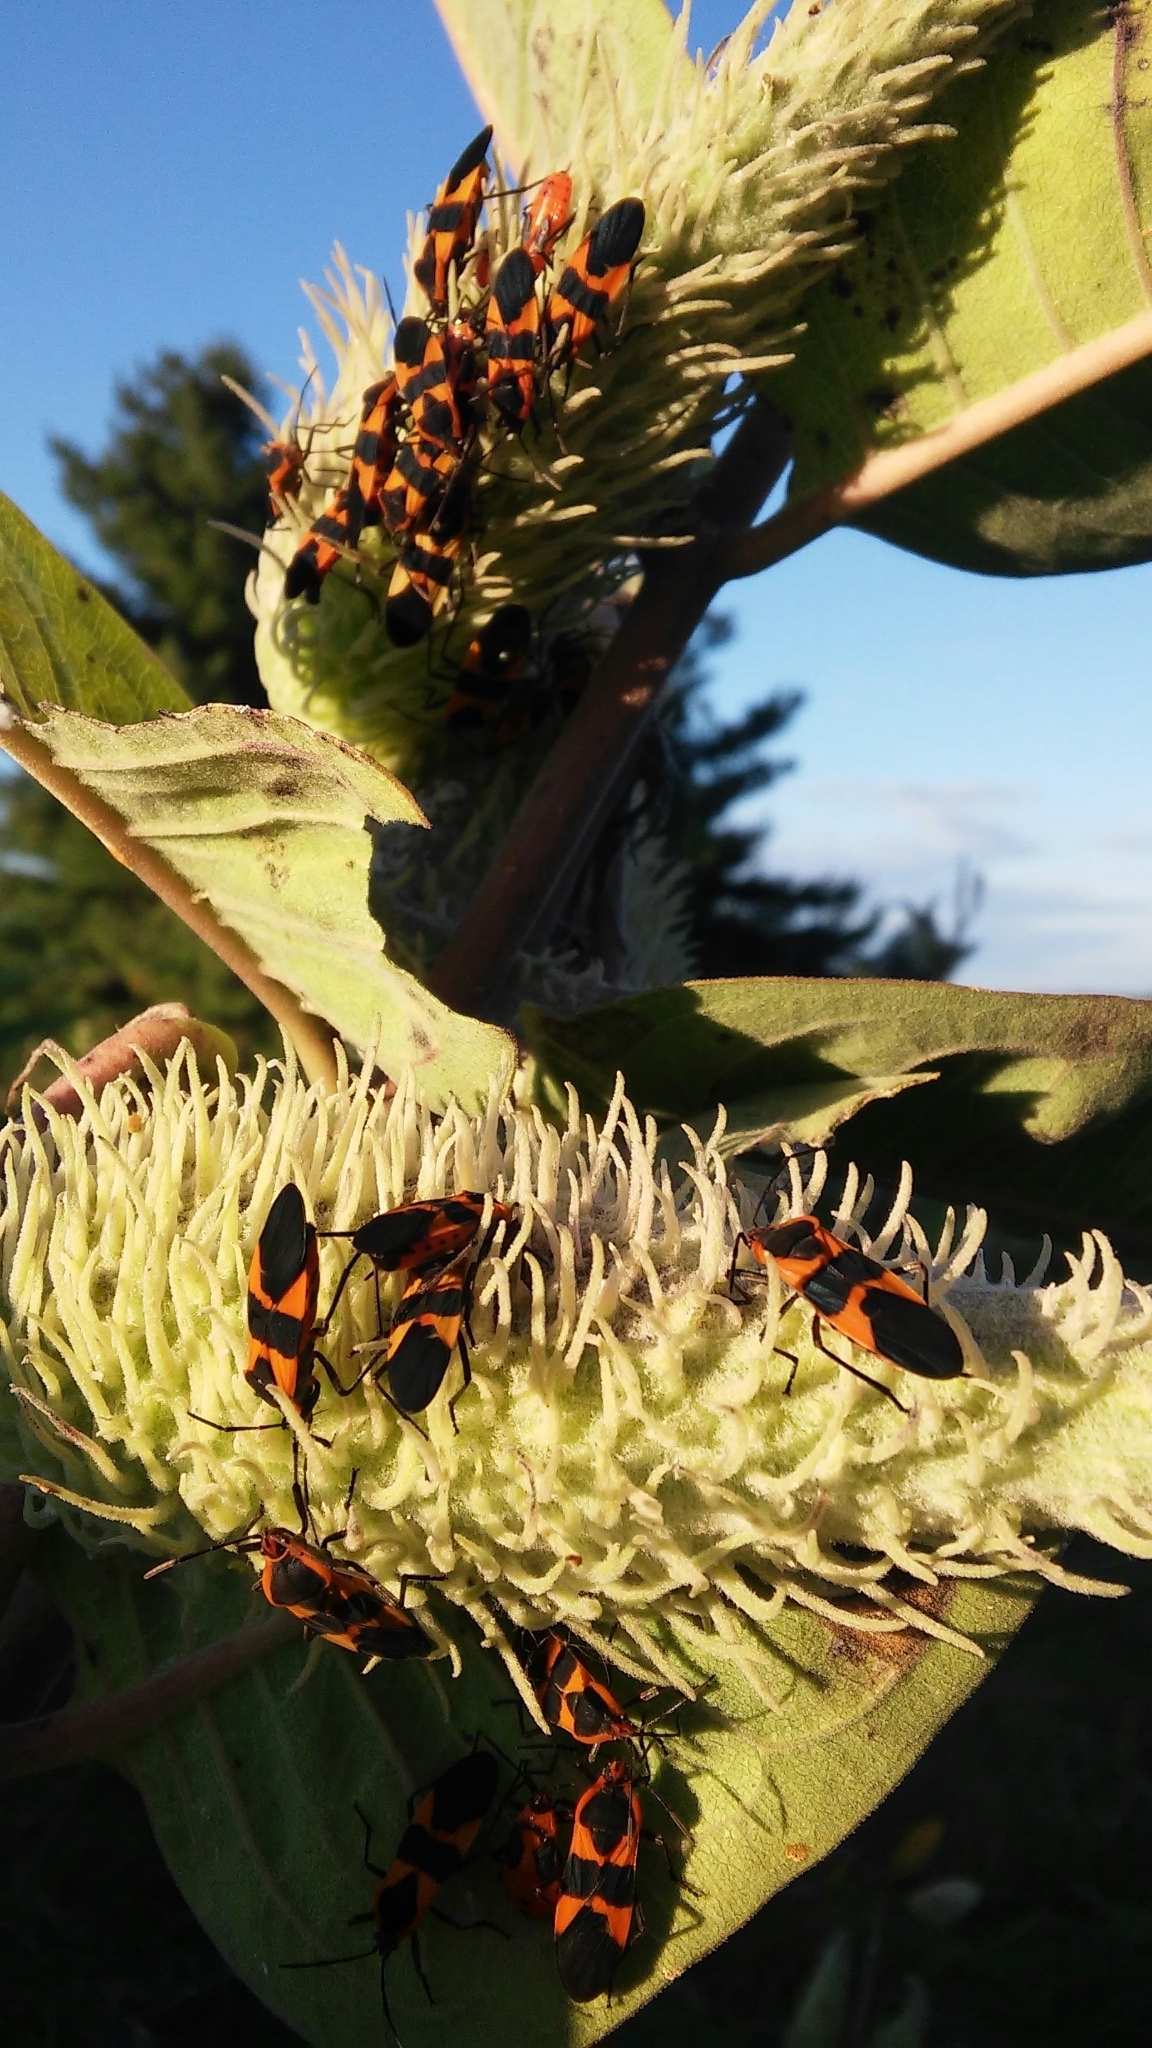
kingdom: Animalia
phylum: Arthropoda
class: Insecta
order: Hemiptera
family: Lygaeidae
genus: Oncopeltus
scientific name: Oncopeltus fasciatus
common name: Large milkweed bug
